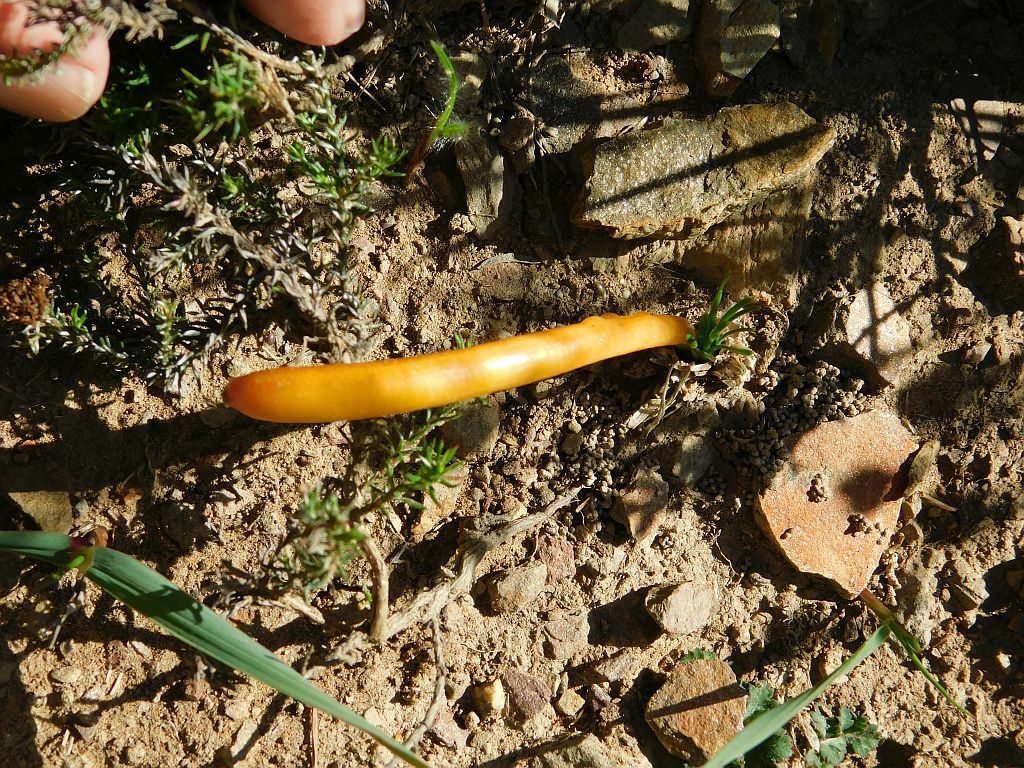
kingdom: Plantae
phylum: Tracheophyta
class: Liliopsida
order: Asparagales
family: Amaryllidaceae
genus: Gethyllis
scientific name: Gethyllis afra
